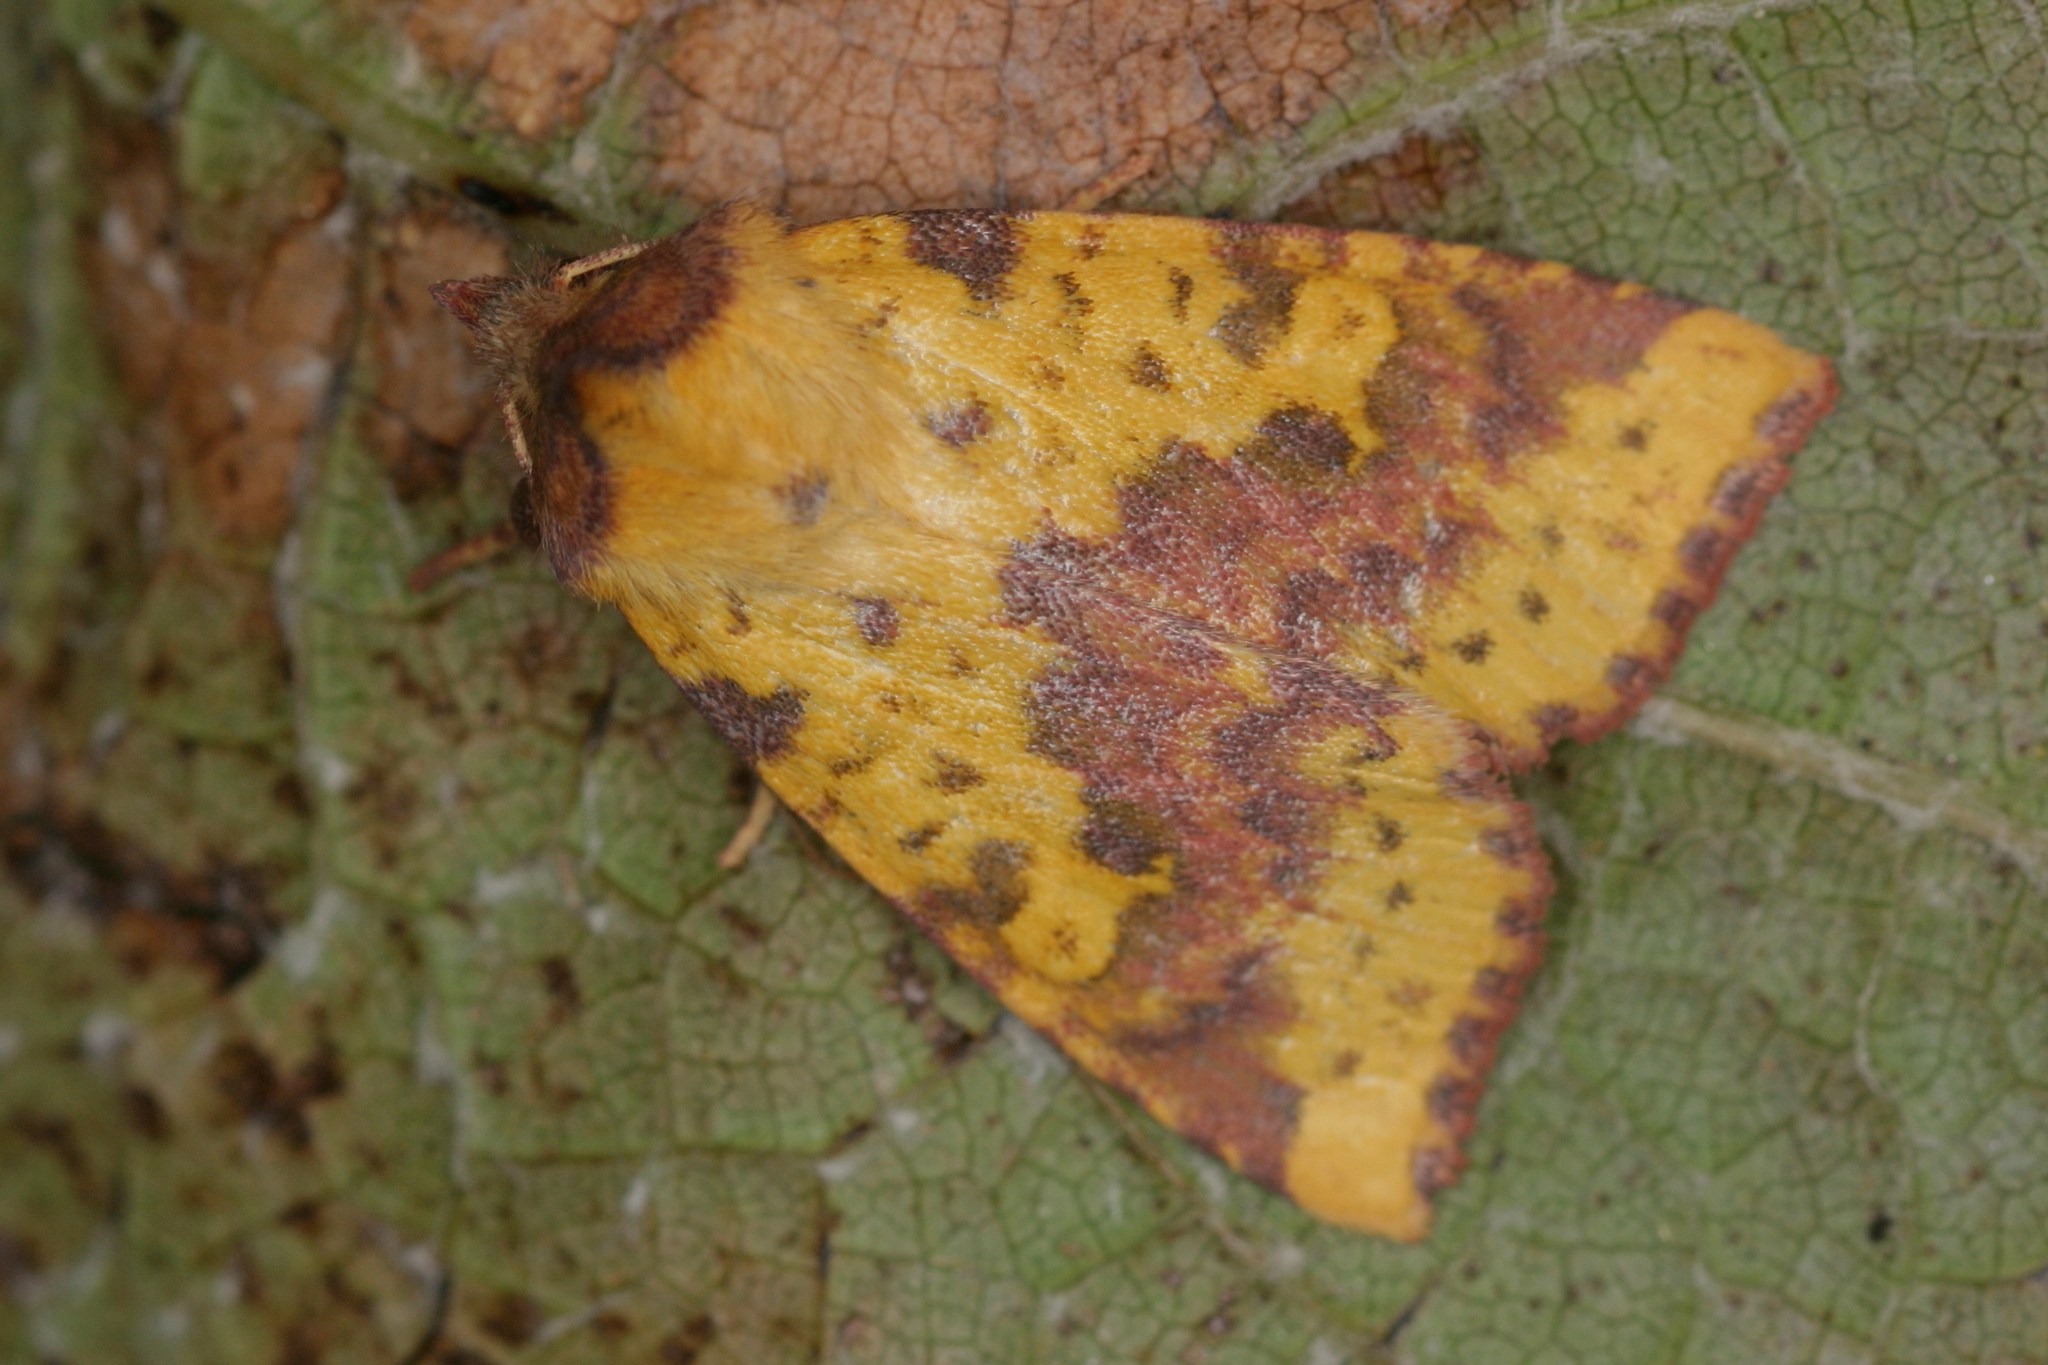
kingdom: Animalia
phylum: Arthropoda
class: Insecta
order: Lepidoptera
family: Noctuidae
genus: Xanthia
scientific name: Xanthia togata
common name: Pink-barred sallow
